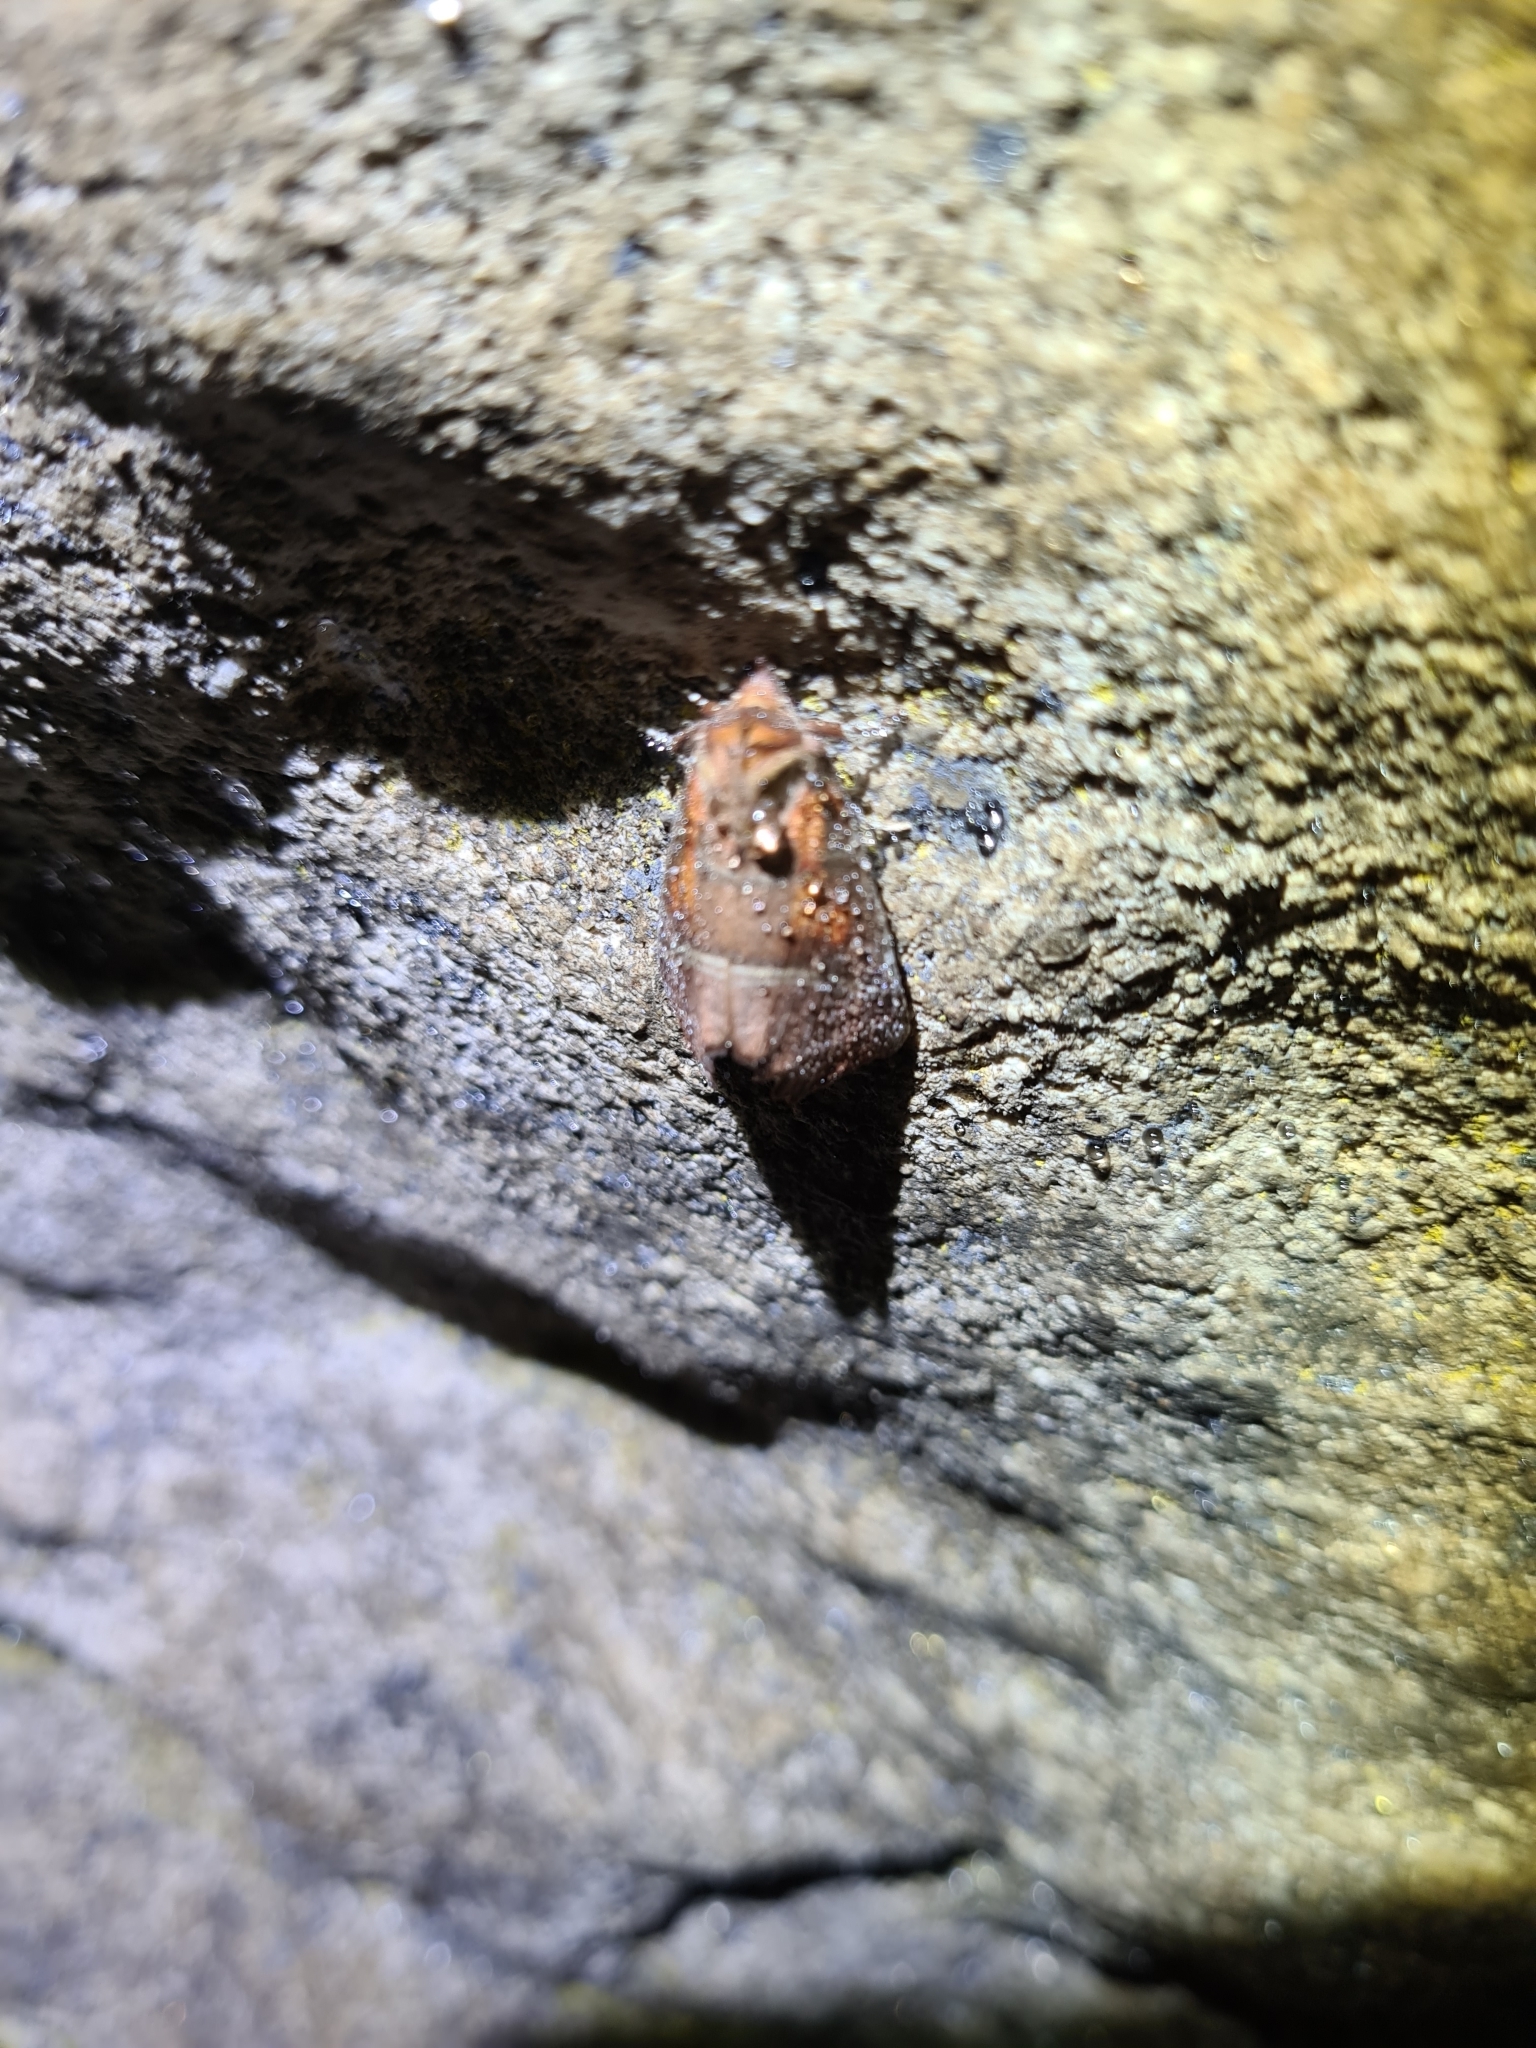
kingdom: Animalia
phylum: Arthropoda
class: Insecta
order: Lepidoptera
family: Erebidae
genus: Scoliopteryx
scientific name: Scoliopteryx libatrix
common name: Herald
